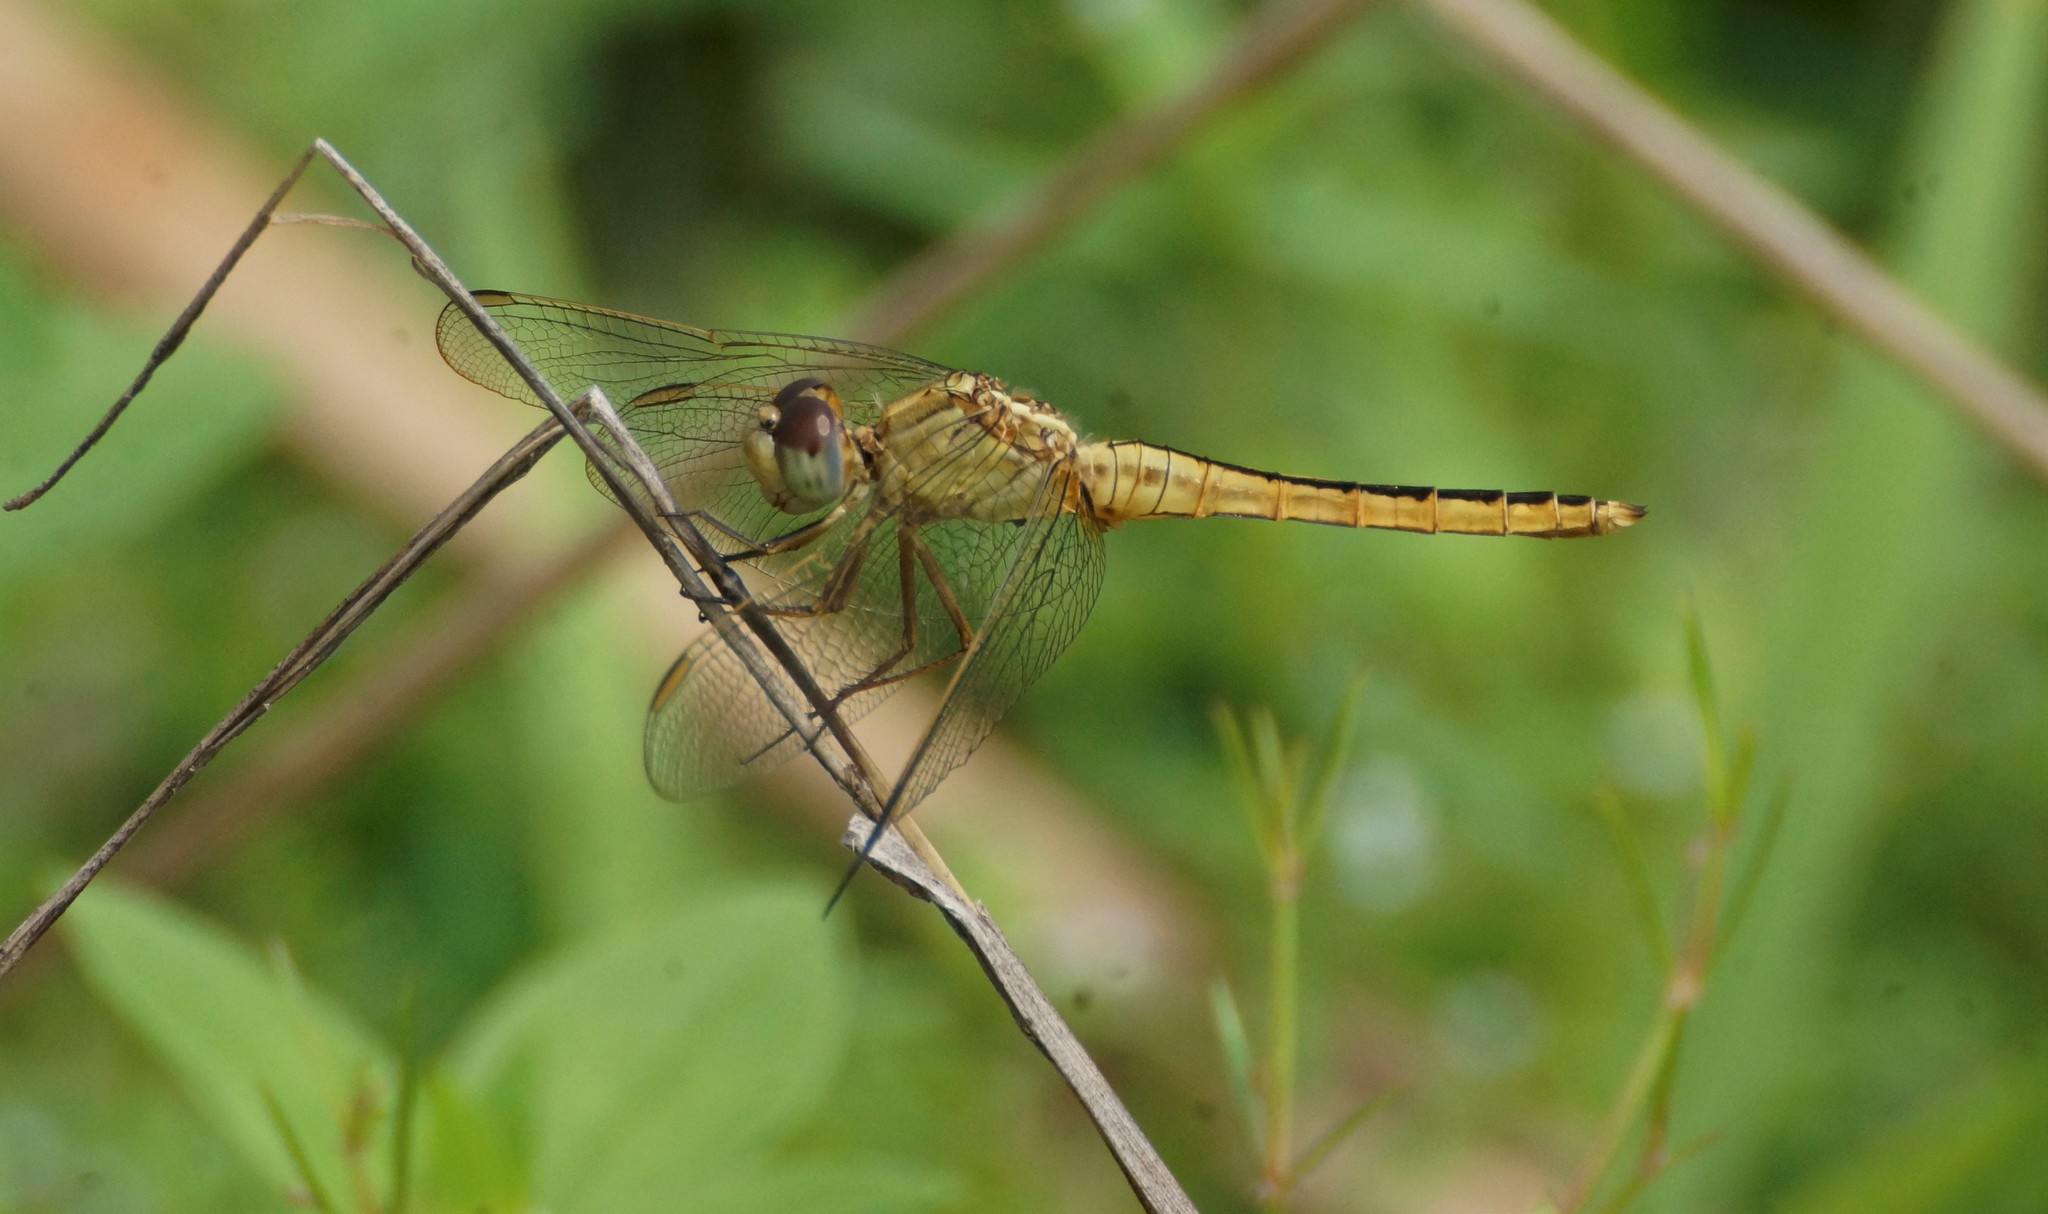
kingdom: Animalia
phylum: Arthropoda
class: Insecta
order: Odonata
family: Libellulidae
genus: Crocothemis
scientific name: Crocothemis nigrifrons
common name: Black-headed skimmer
